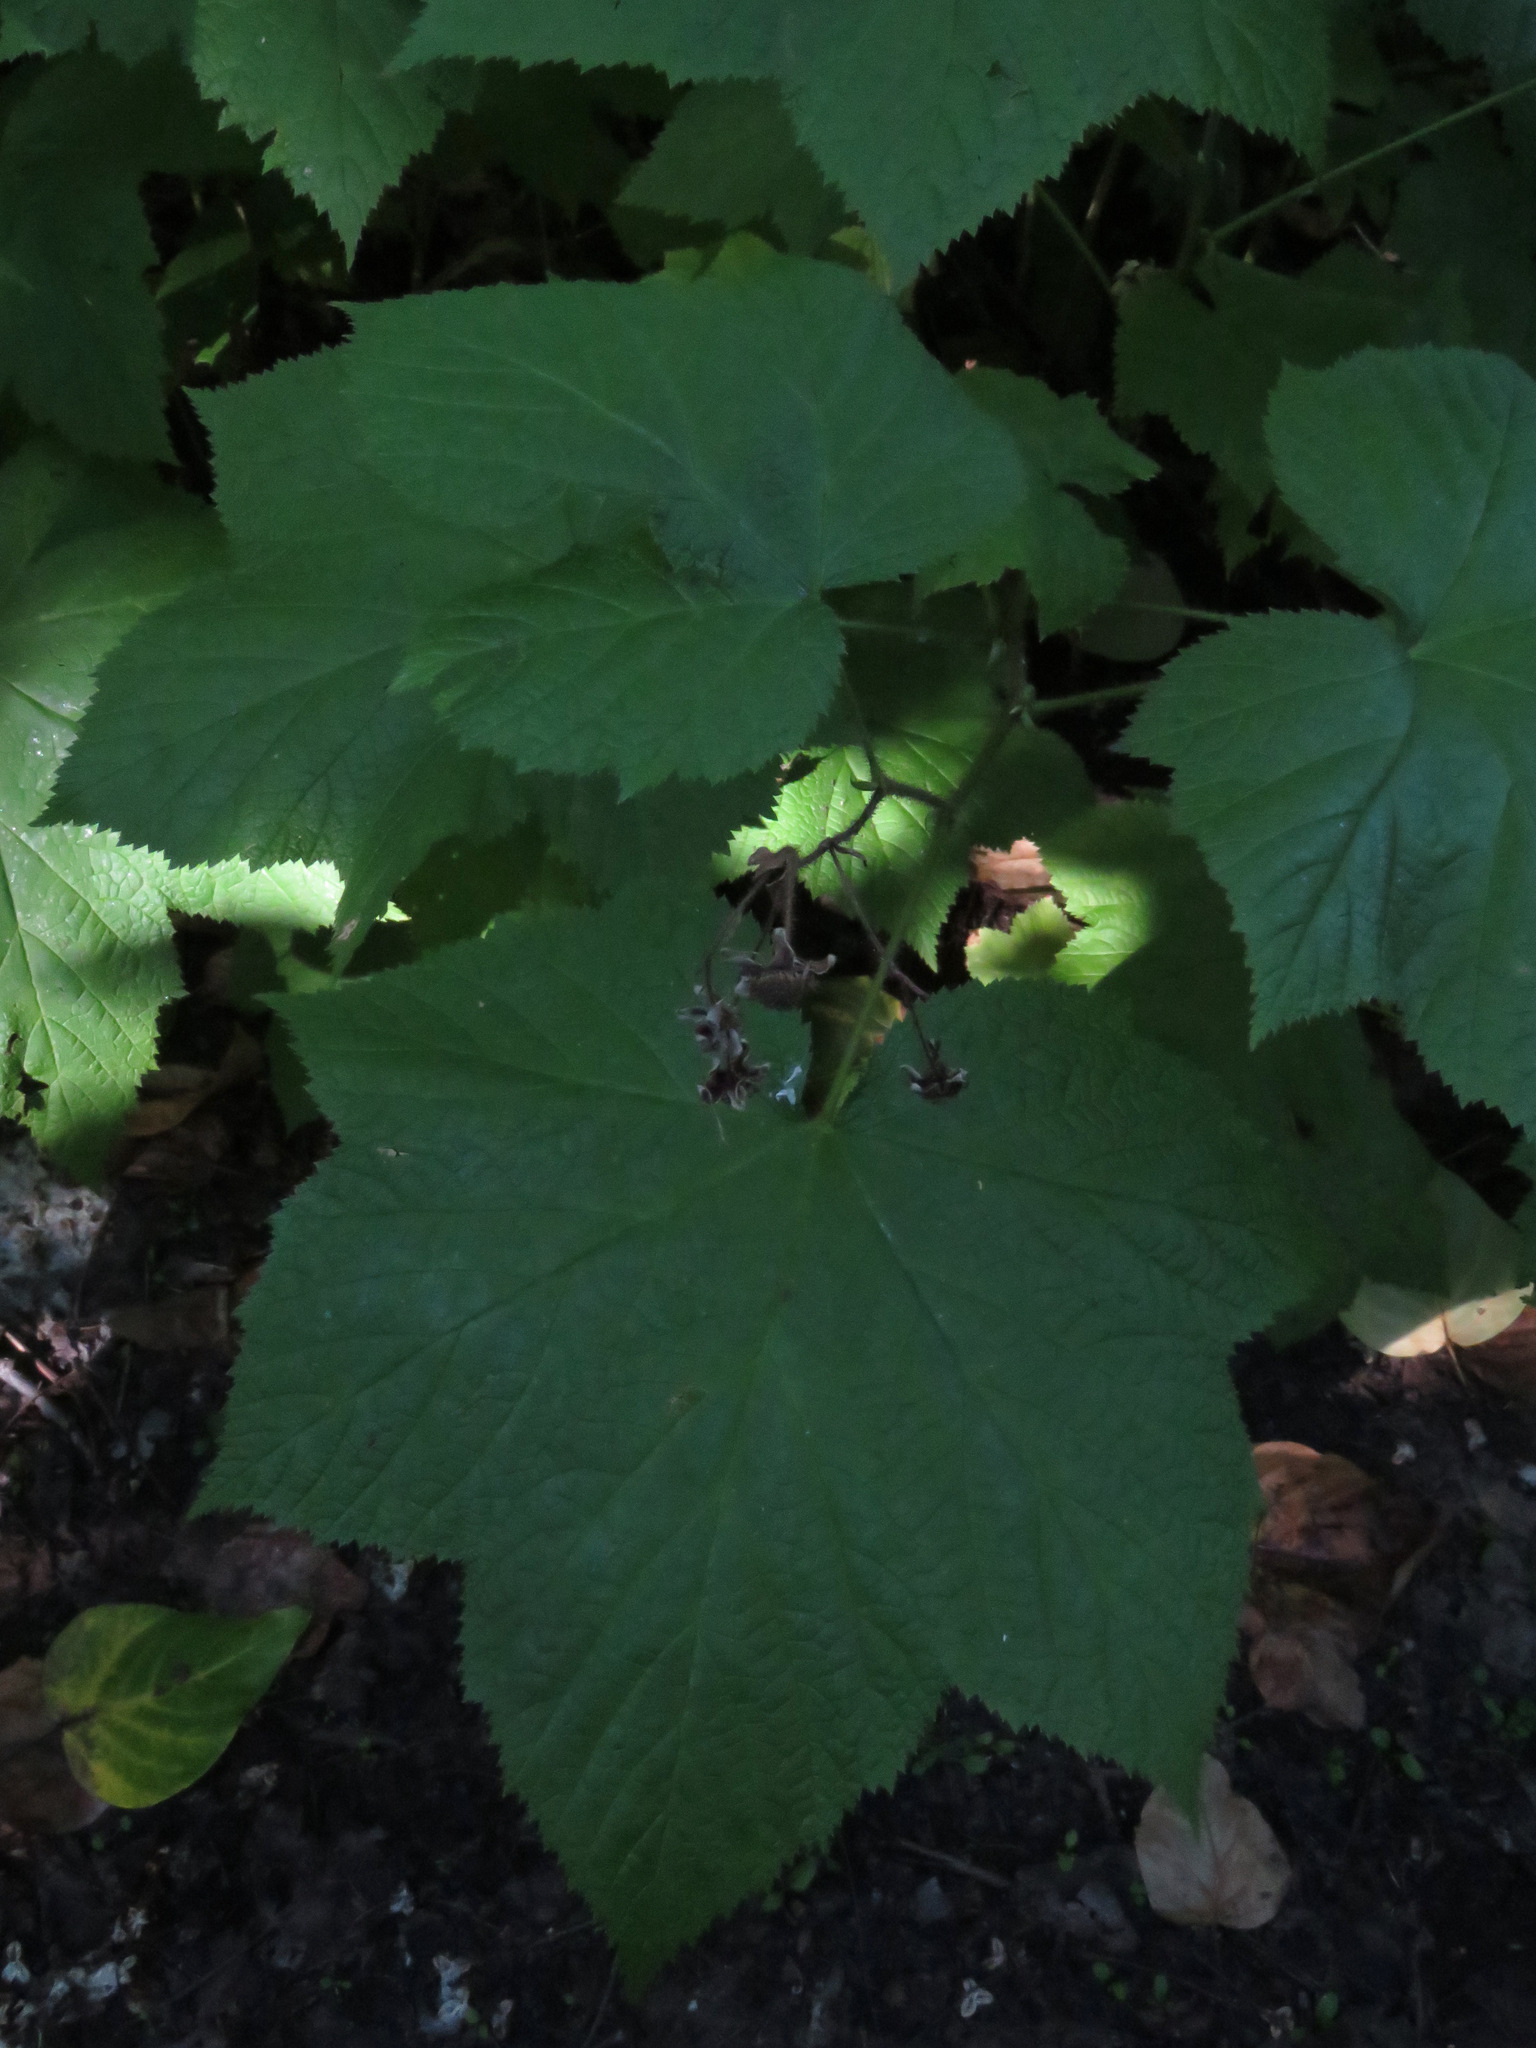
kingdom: Plantae
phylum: Tracheophyta
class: Magnoliopsida
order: Rosales
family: Rosaceae
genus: Rubus
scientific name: Rubus parviflorus
